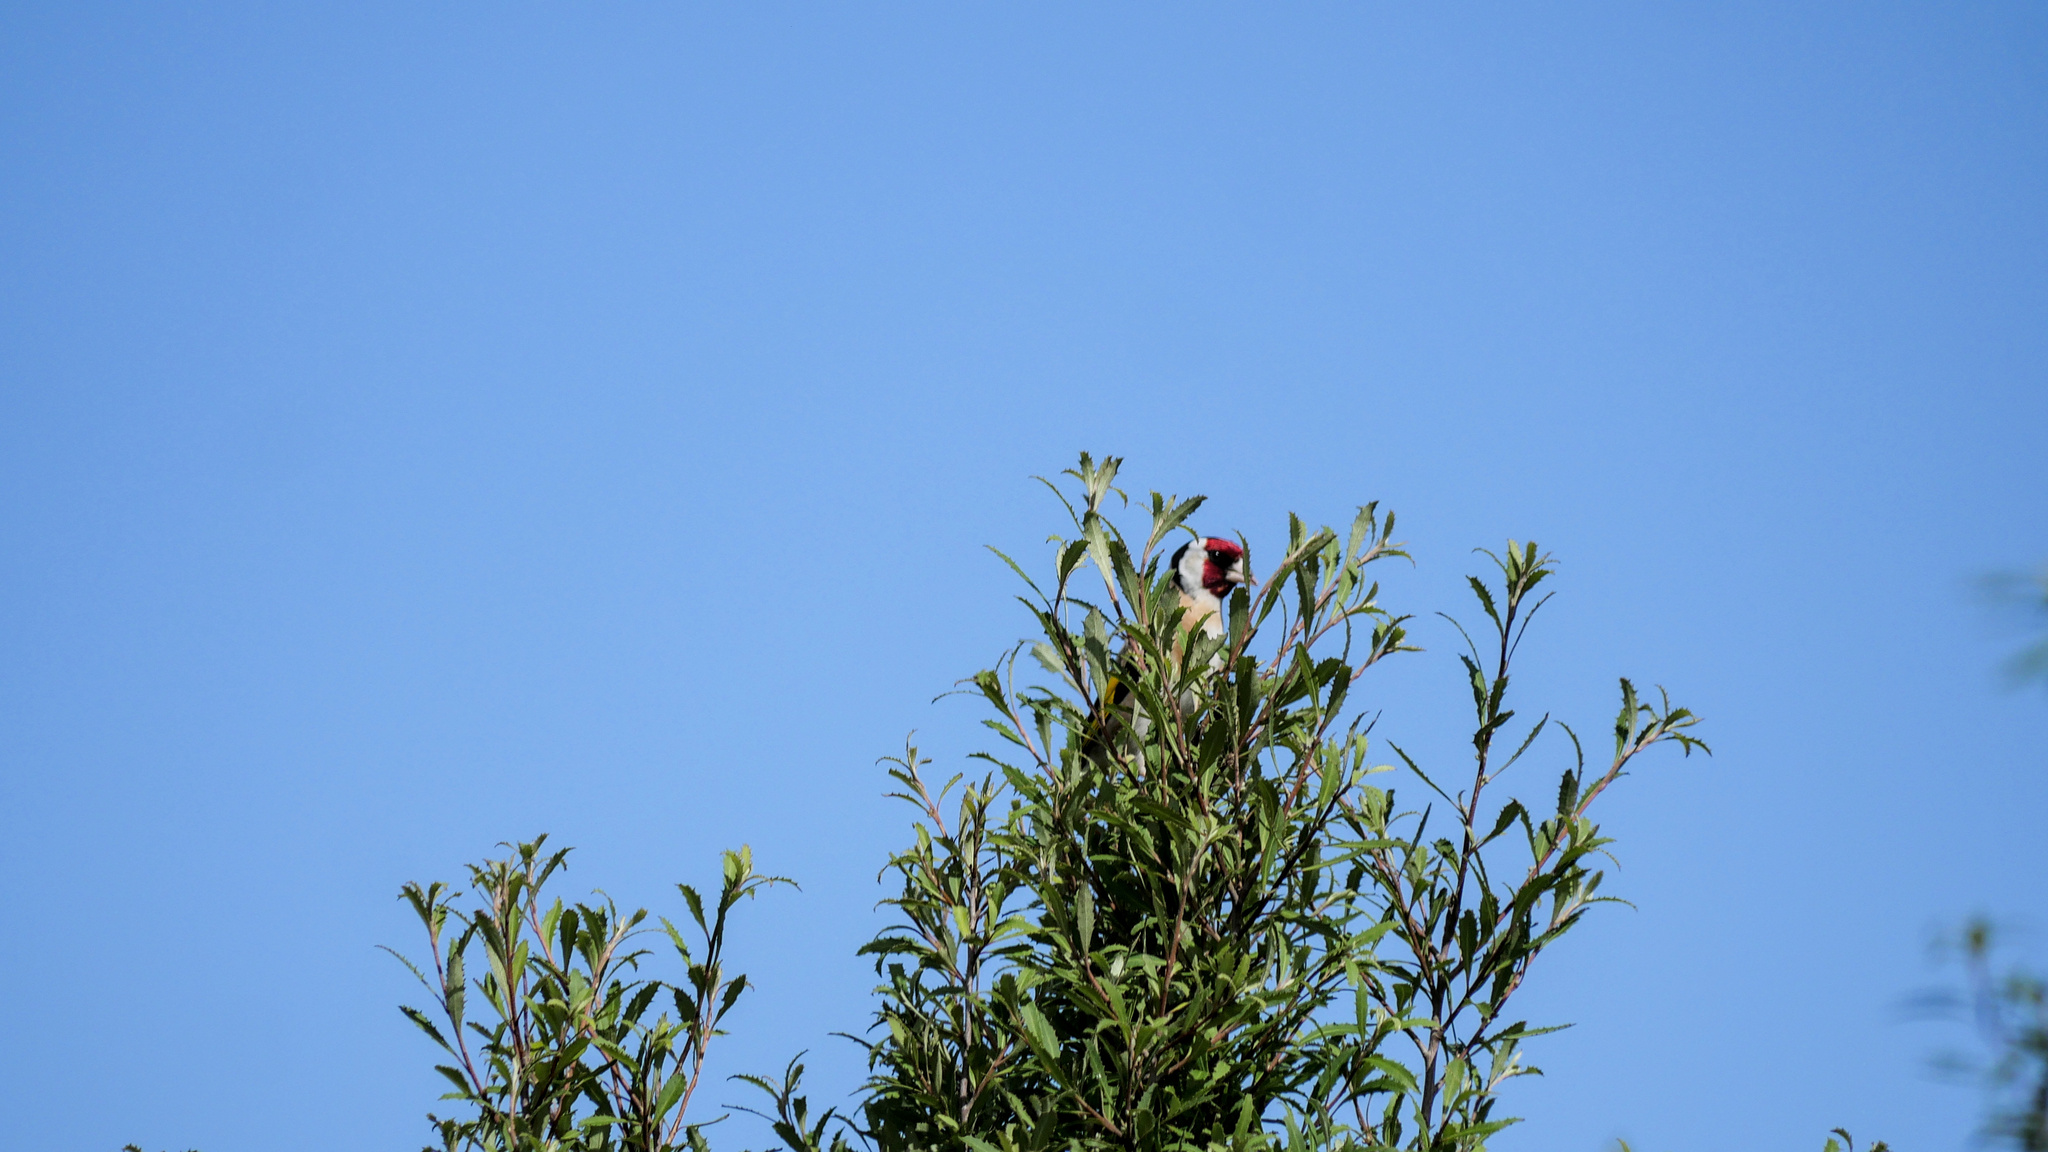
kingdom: Animalia
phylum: Chordata
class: Aves
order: Passeriformes
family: Fringillidae
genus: Carduelis
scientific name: Carduelis carduelis
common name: European goldfinch
